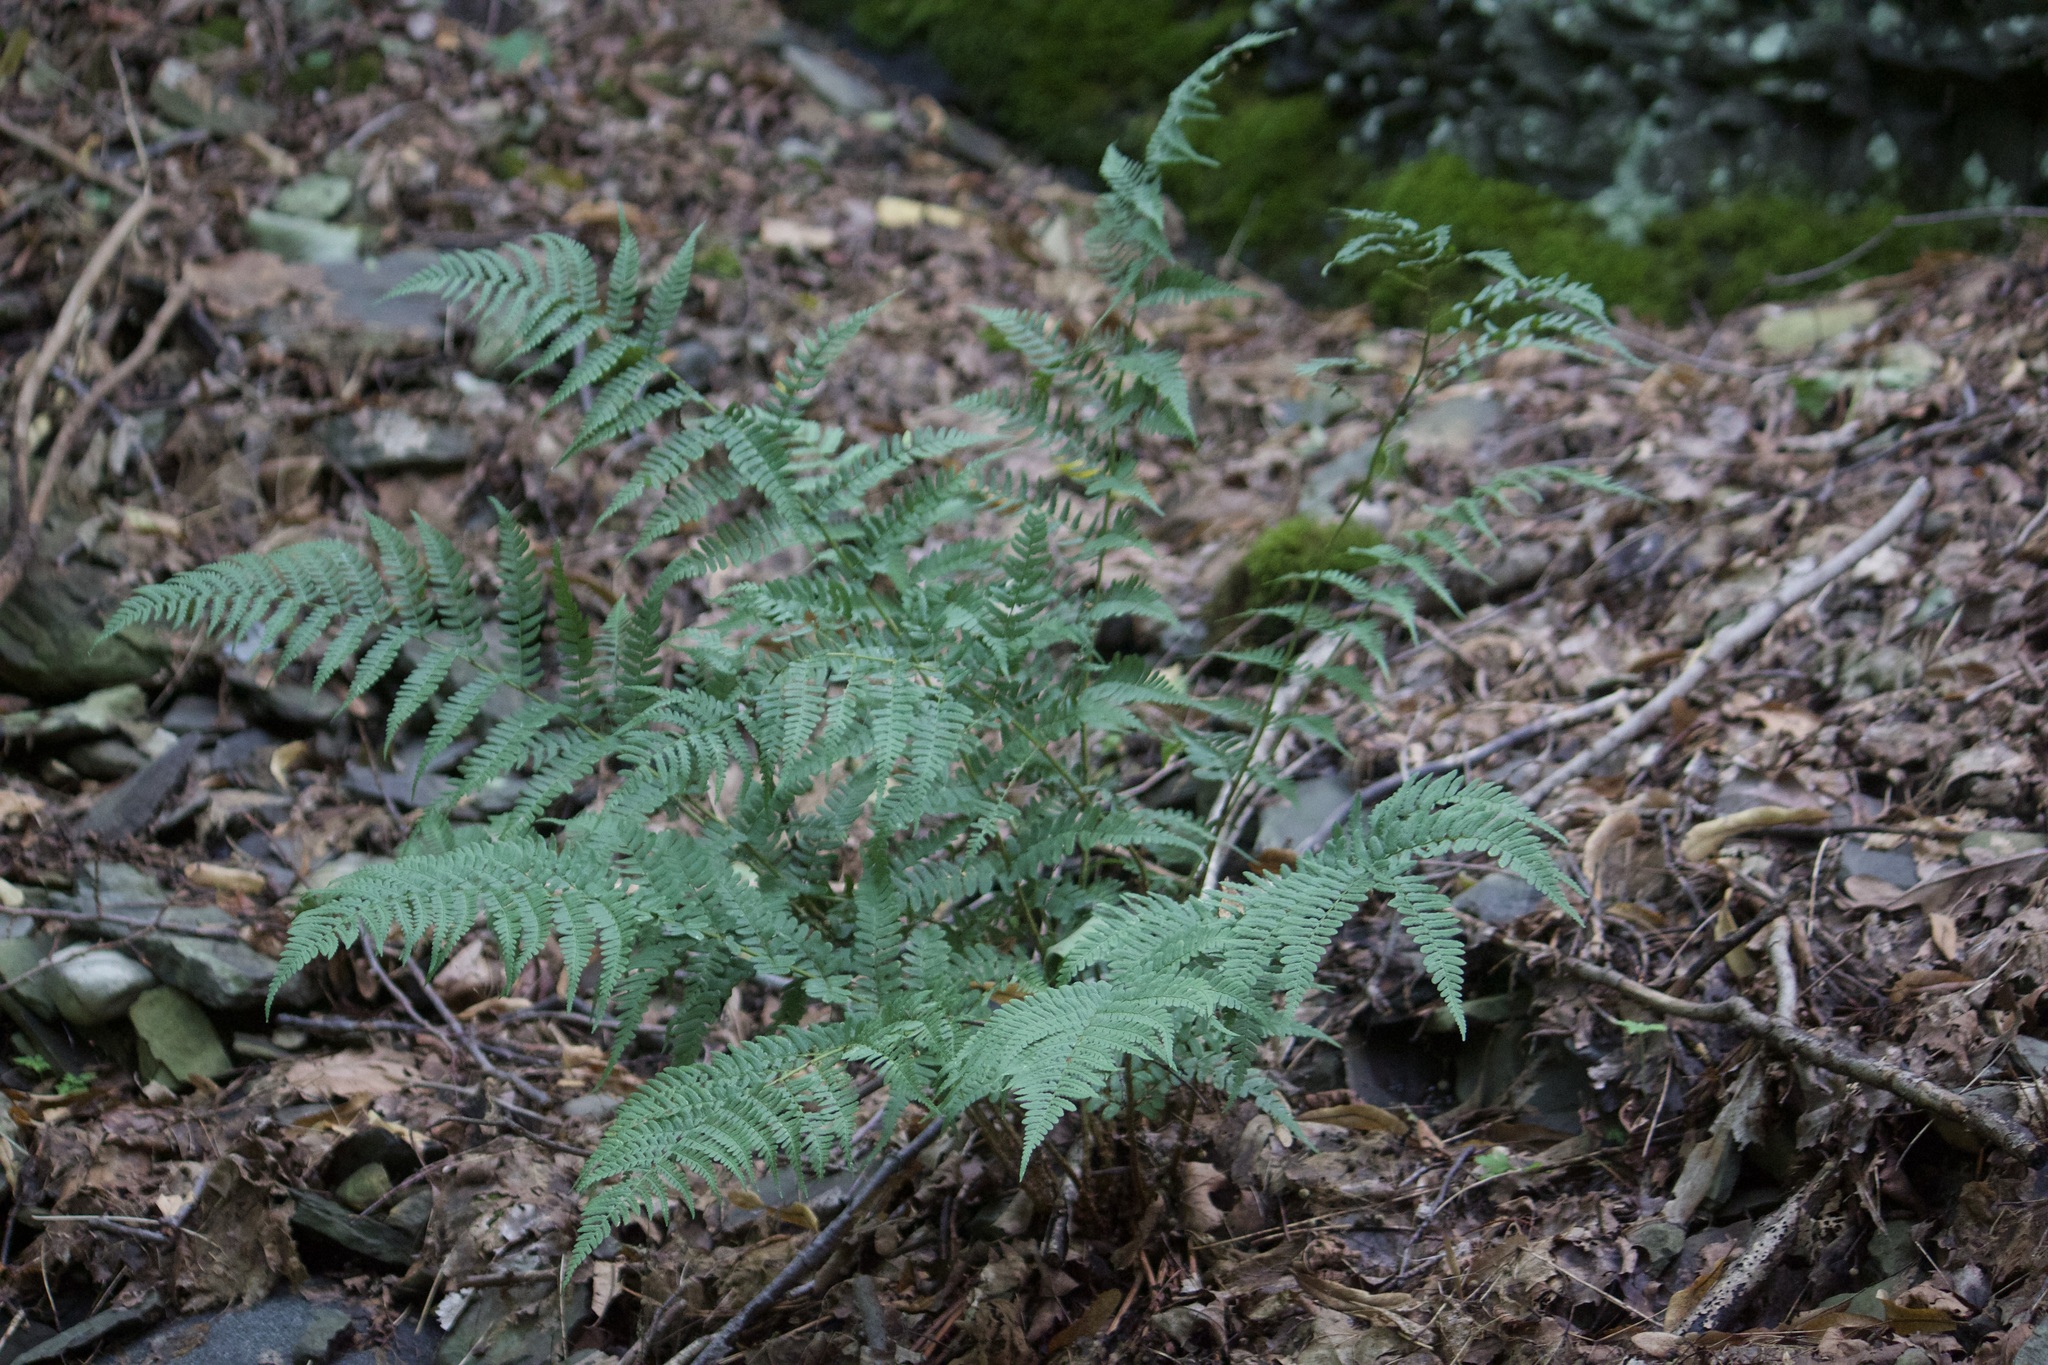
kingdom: Plantae
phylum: Tracheophyta
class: Polypodiopsida
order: Polypodiales
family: Dryopteridaceae
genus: Dryopteris
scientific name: Dryopteris marginalis
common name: Marginal wood fern
